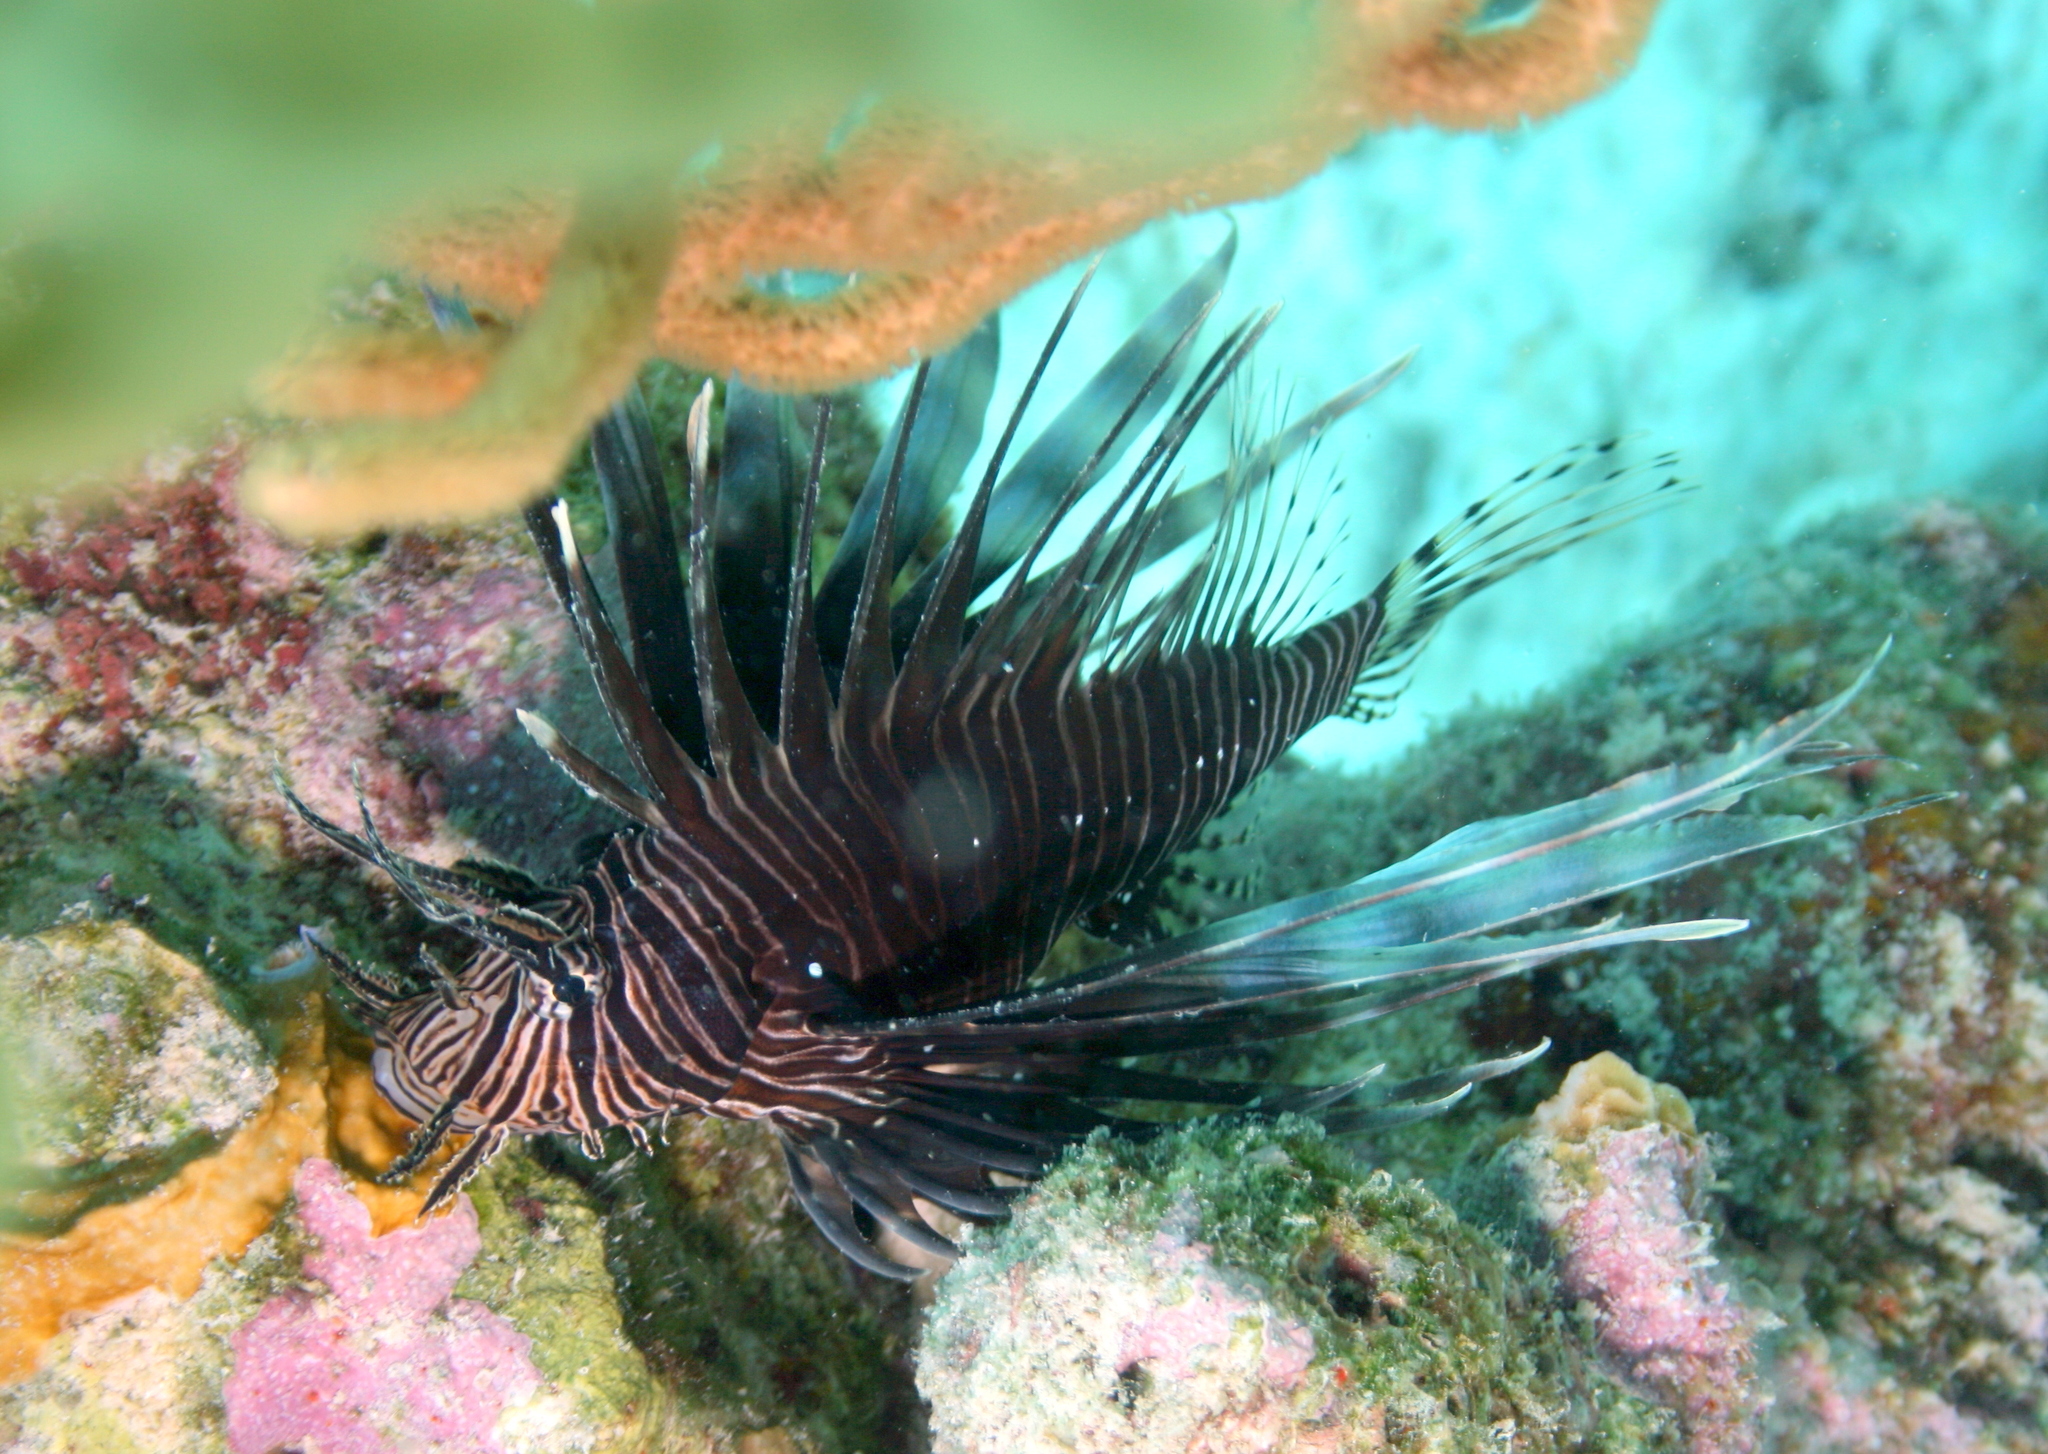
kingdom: Animalia
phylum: Chordata
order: Scorpaeniformes
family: Scorpaenidae
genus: Pterois
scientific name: Pterois volitans
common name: Lionfish
